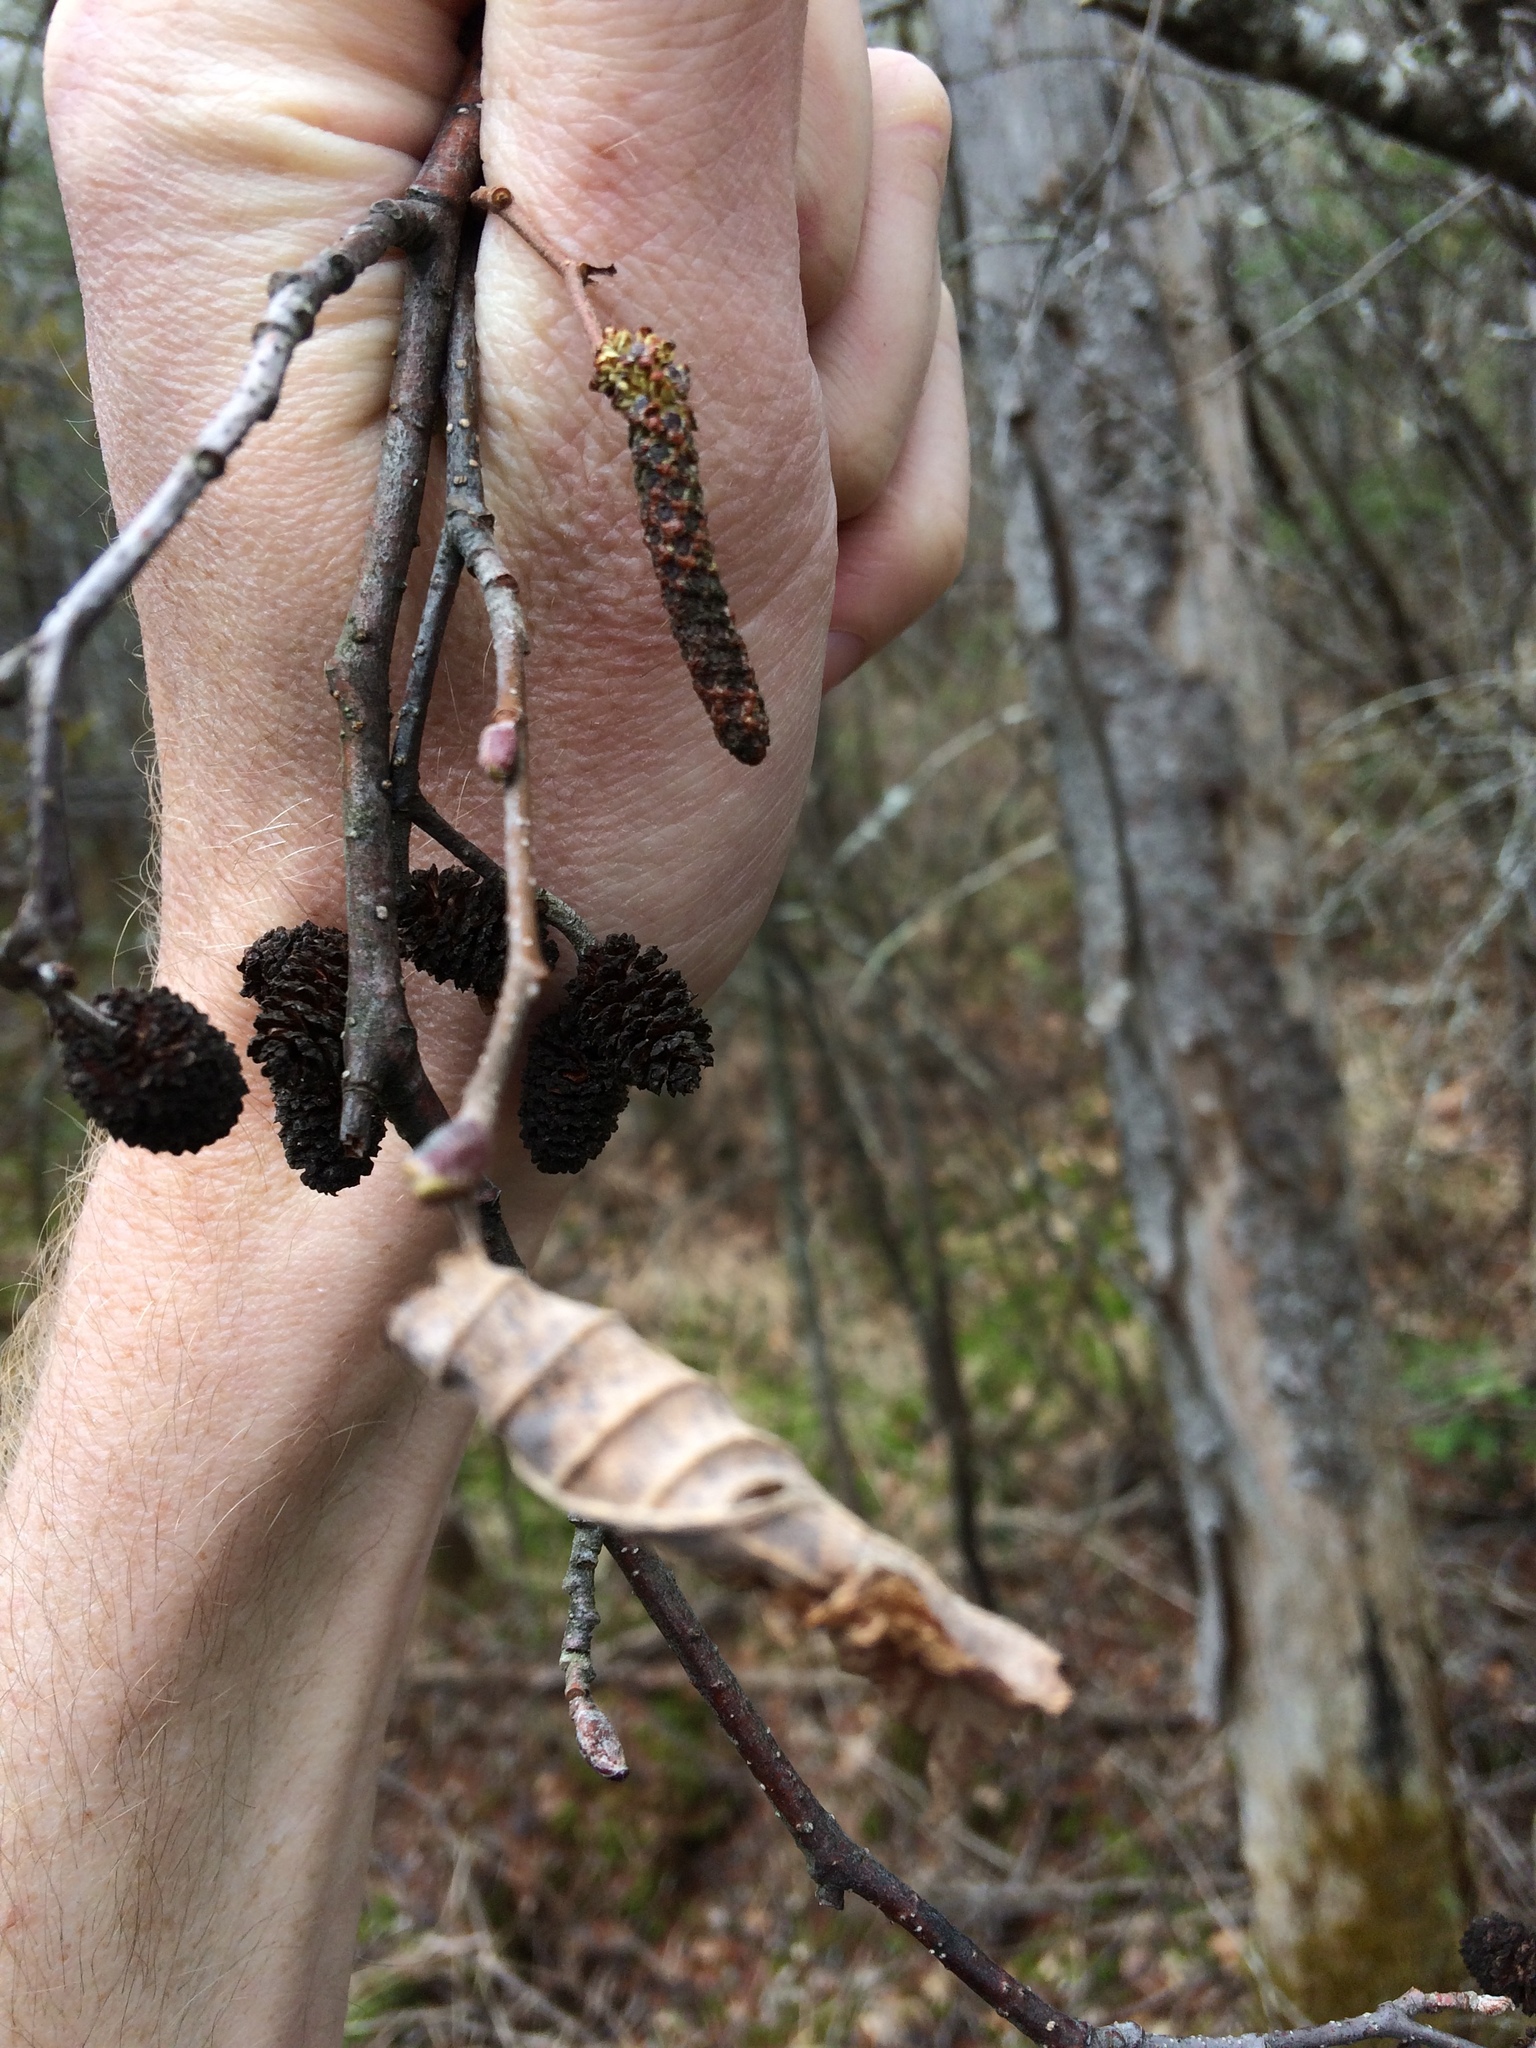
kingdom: Plantae
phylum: Tracheophyta
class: Magnoliopsida
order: Fagales
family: Betulaceae
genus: Alnus
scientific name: Alnus incana
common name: Grey alder
